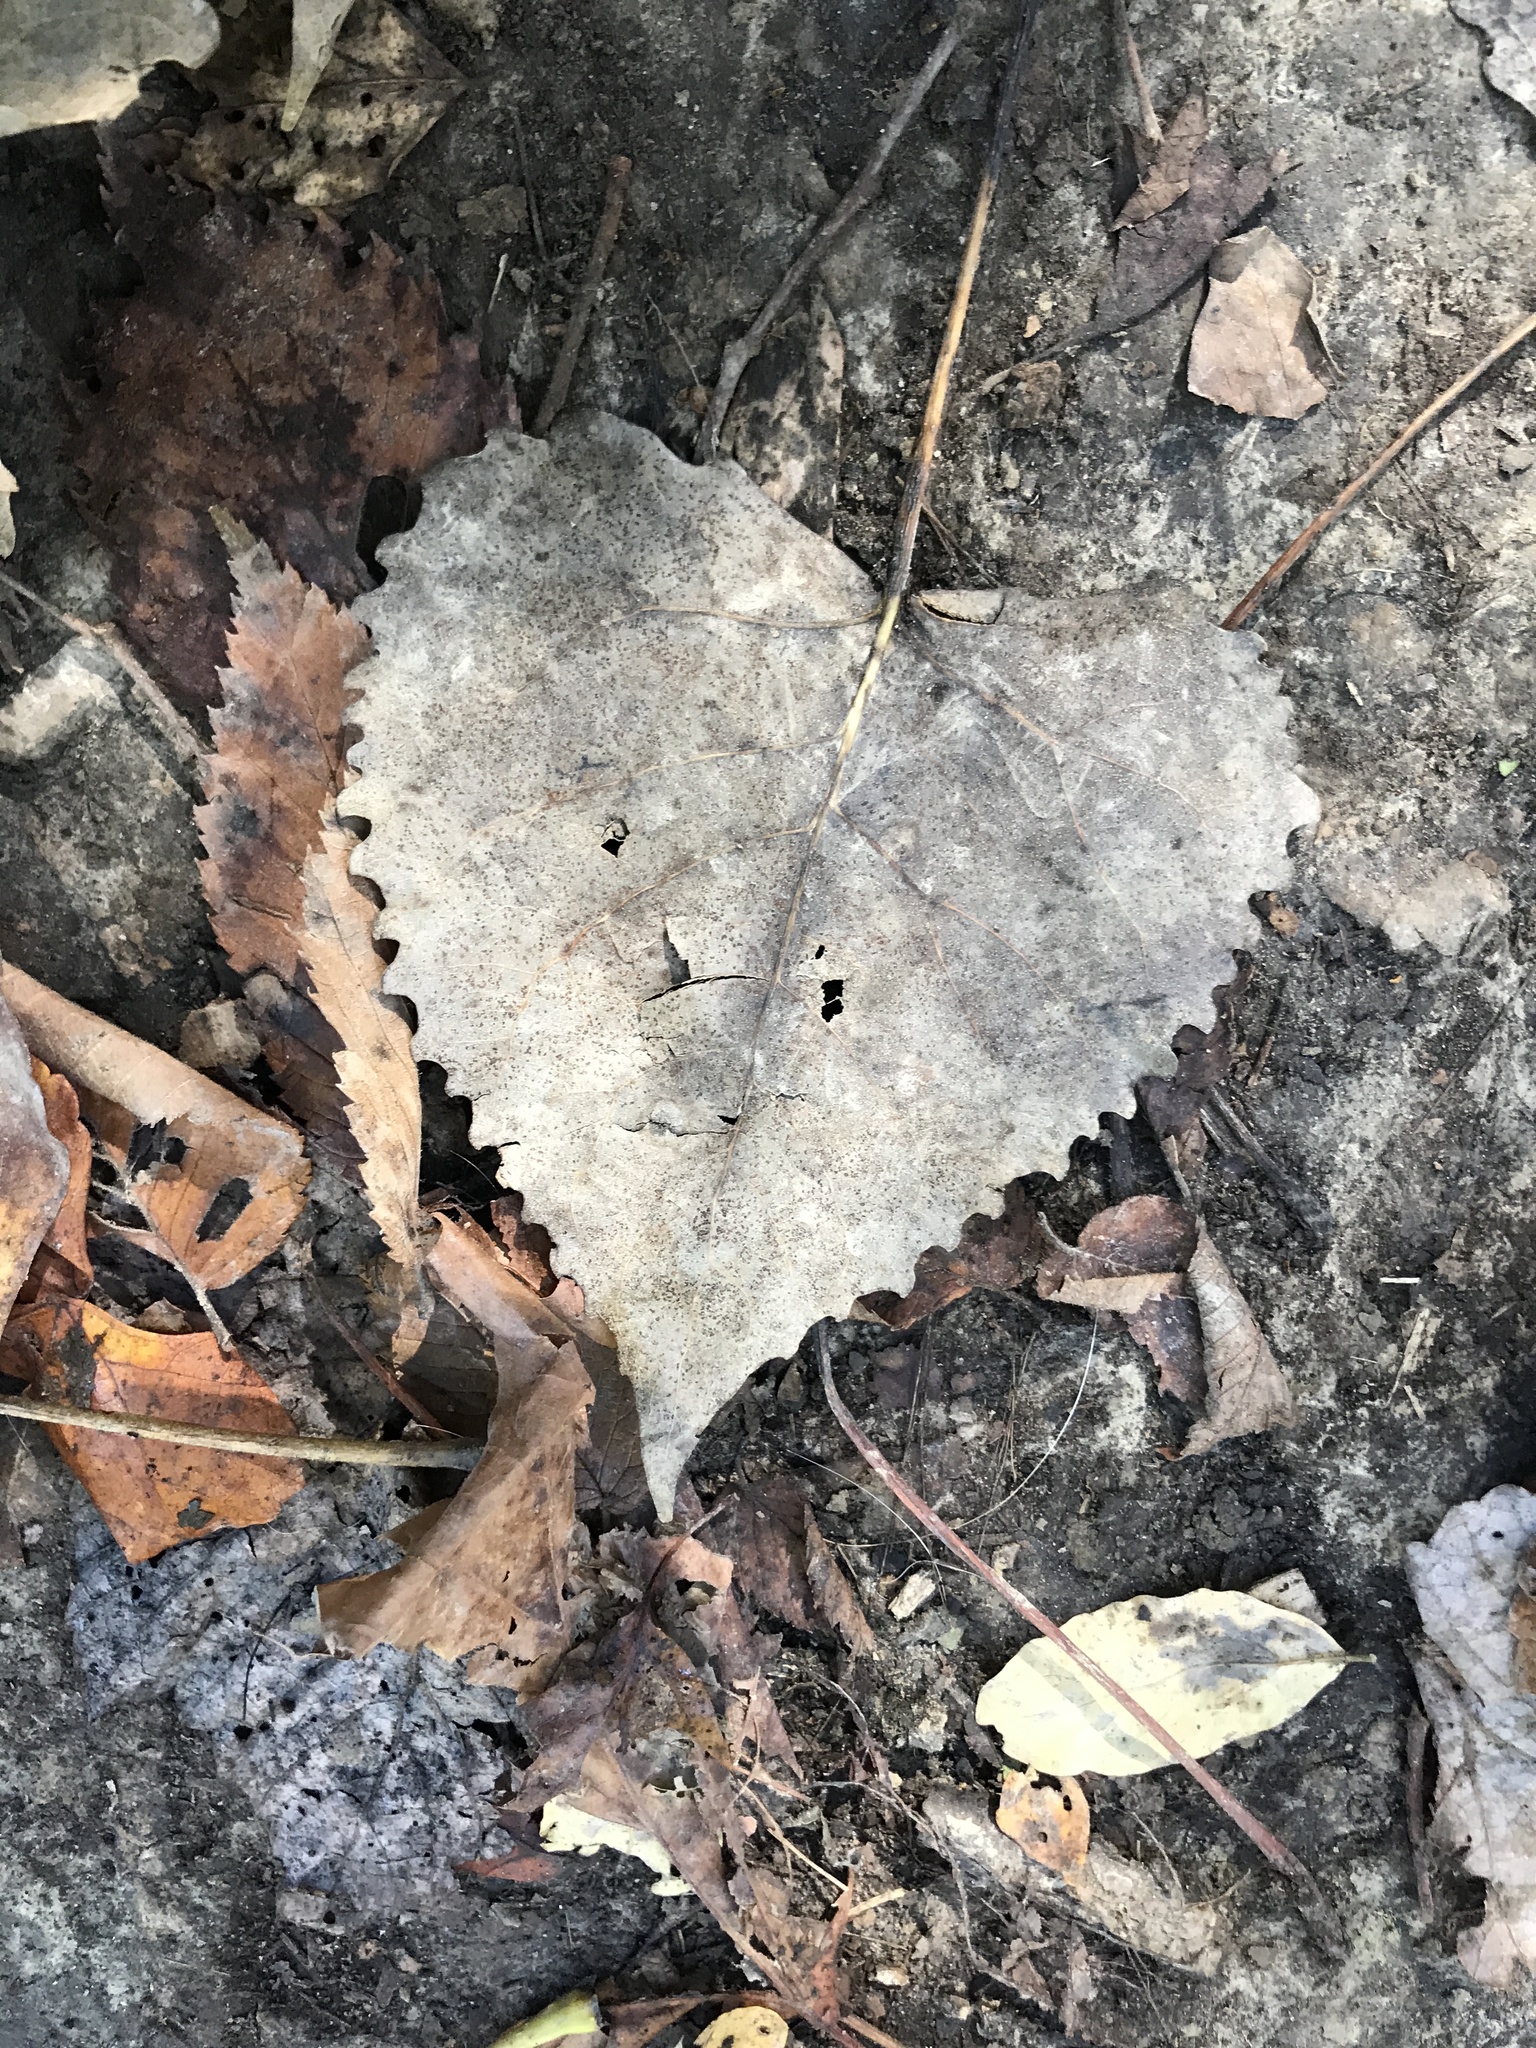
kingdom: Plantae
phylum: Tracheophyta
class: Magnoliopsida
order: Malpighiales
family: Salicaceae
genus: Populus
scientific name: Populus deltoides
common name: Eastern cottonwood
